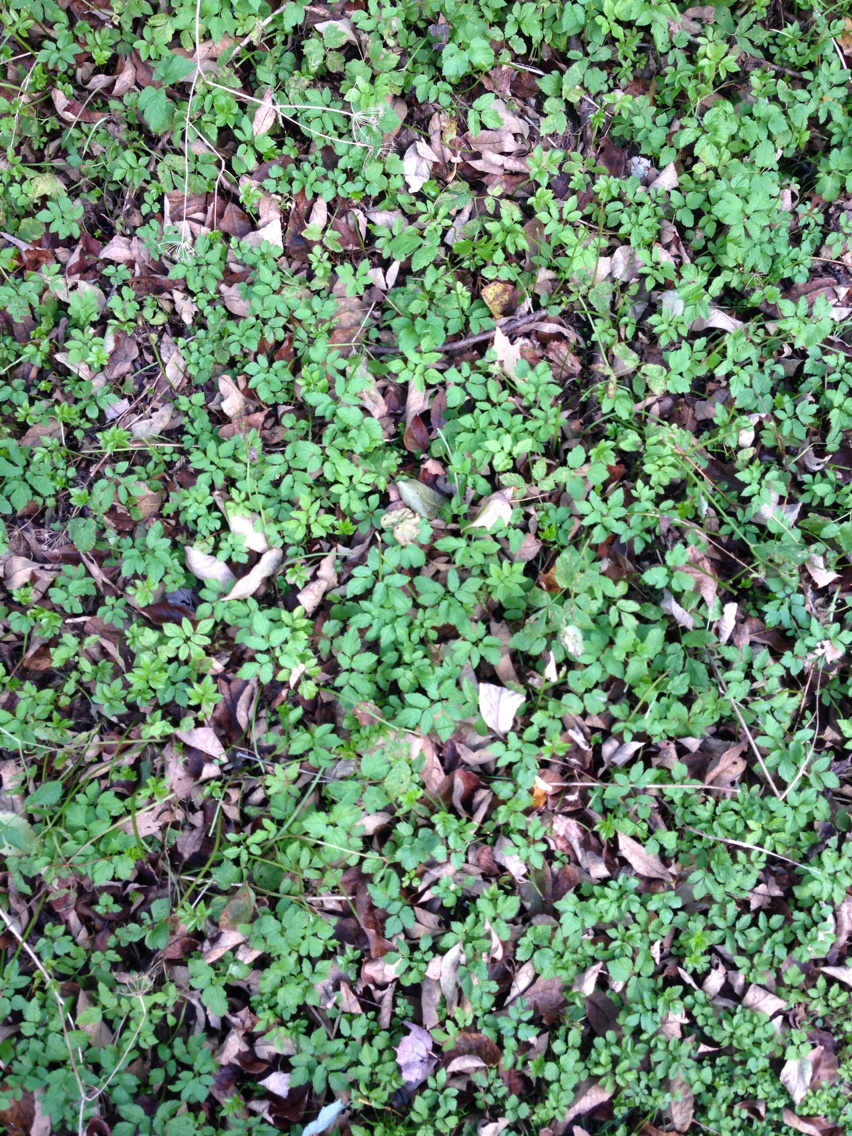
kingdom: Plantae
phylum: Tracheophyta
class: Magnoliopsida
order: Apiales
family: Apiaceae
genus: Aegopodium
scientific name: Aegopodium podagraria
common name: Ground-elder
